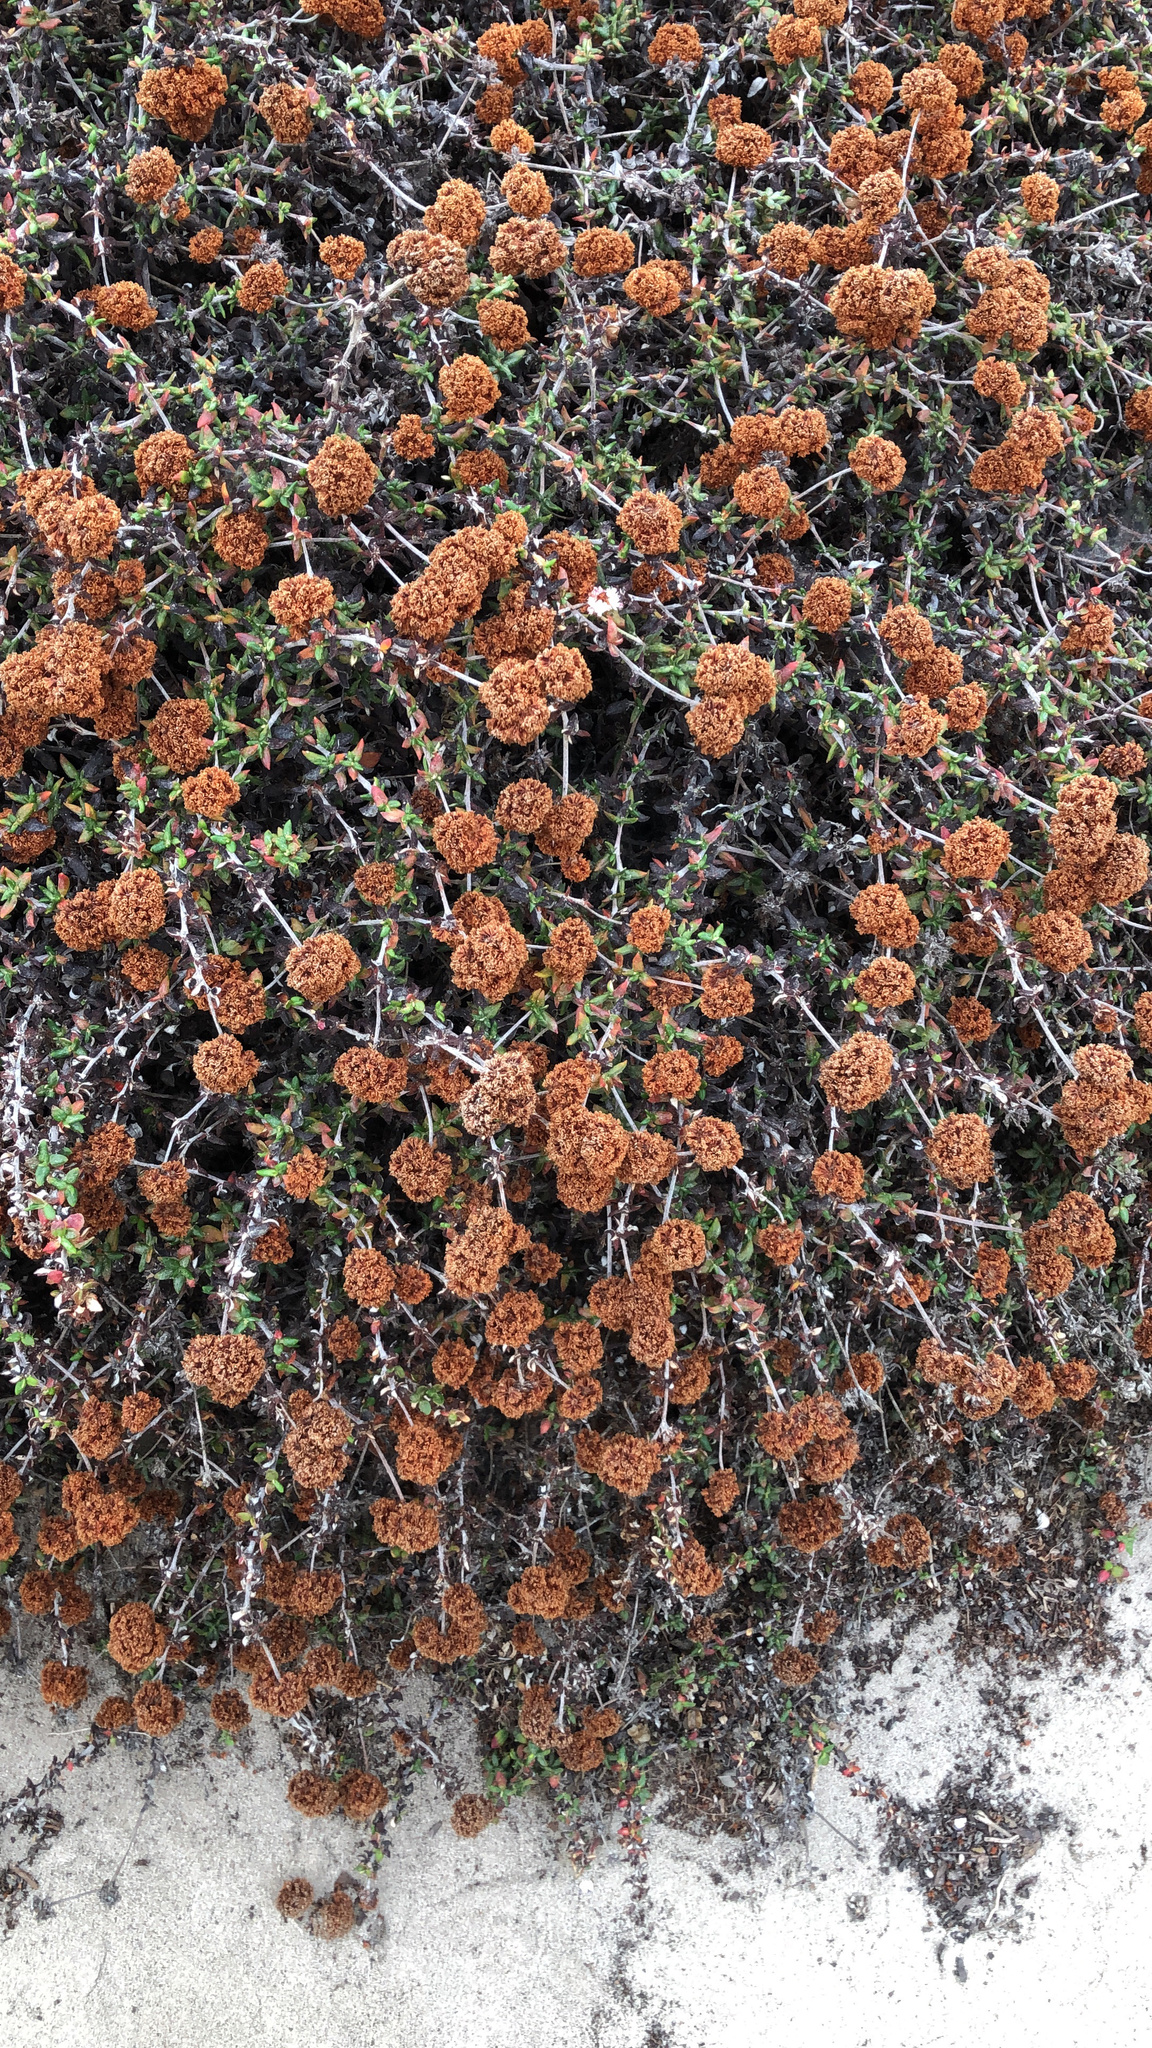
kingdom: Plantae
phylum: Tracheophyta
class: Magnoliopsida
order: Caryophyllales
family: Polygonaceae
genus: Eriogonum
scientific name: Eriogonum parvifolium
